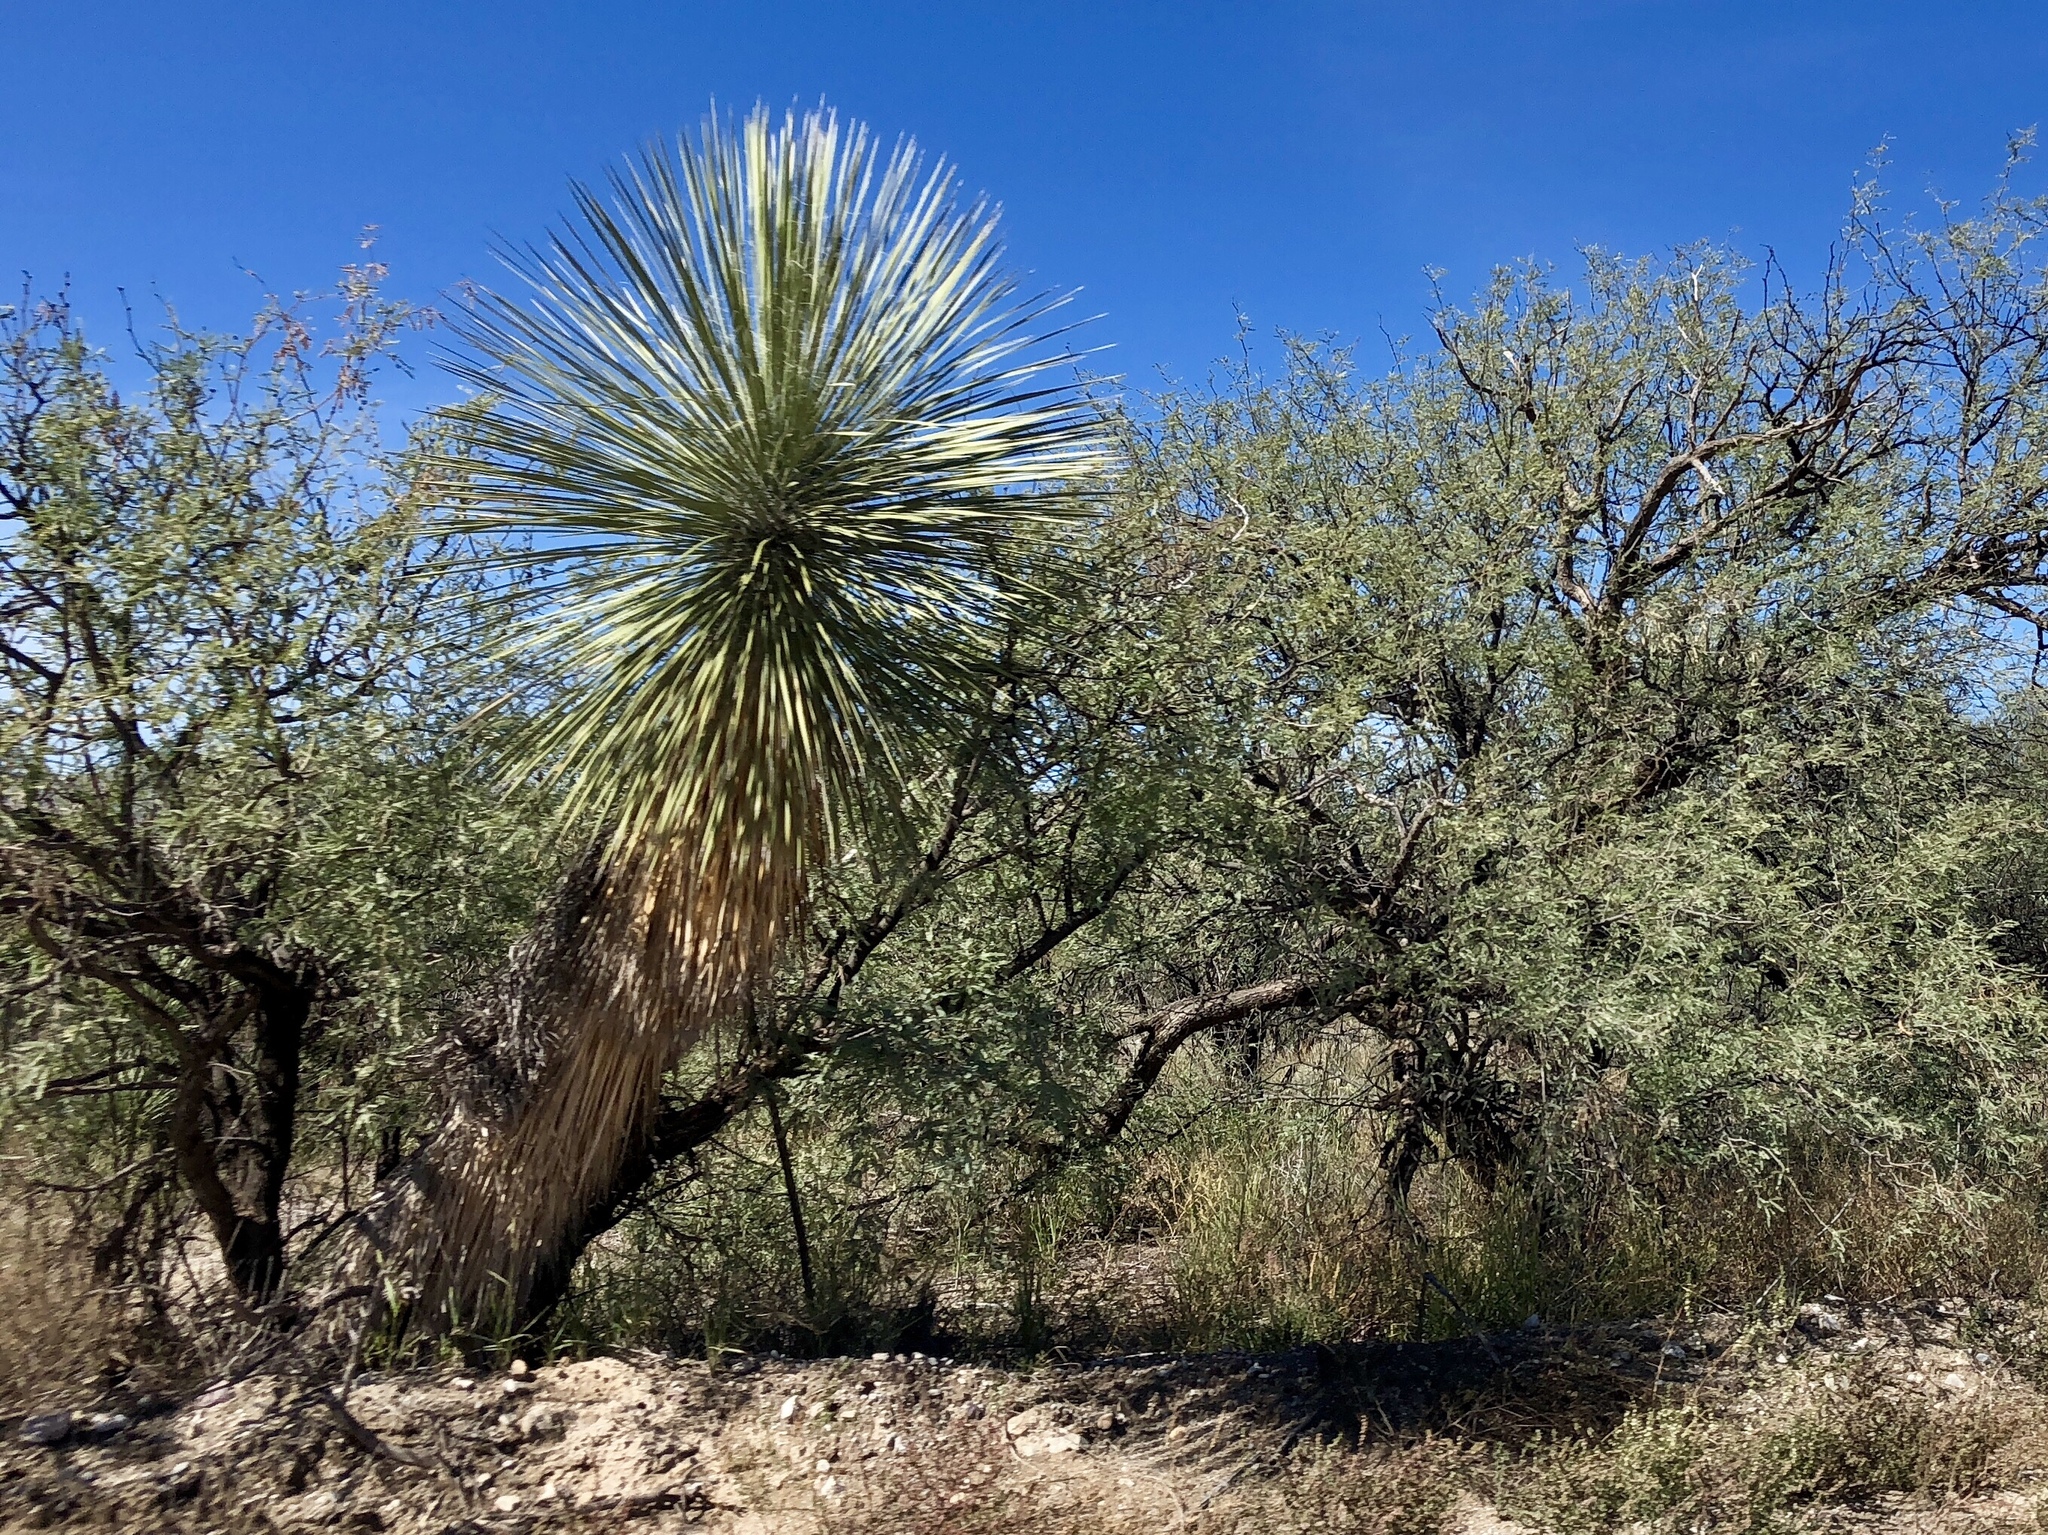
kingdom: Plantae
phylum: Tracheophyta
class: Liliopsida
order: Asparagales
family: Asparagaceae
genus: Yucca
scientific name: Yucca elata
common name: Palmella
